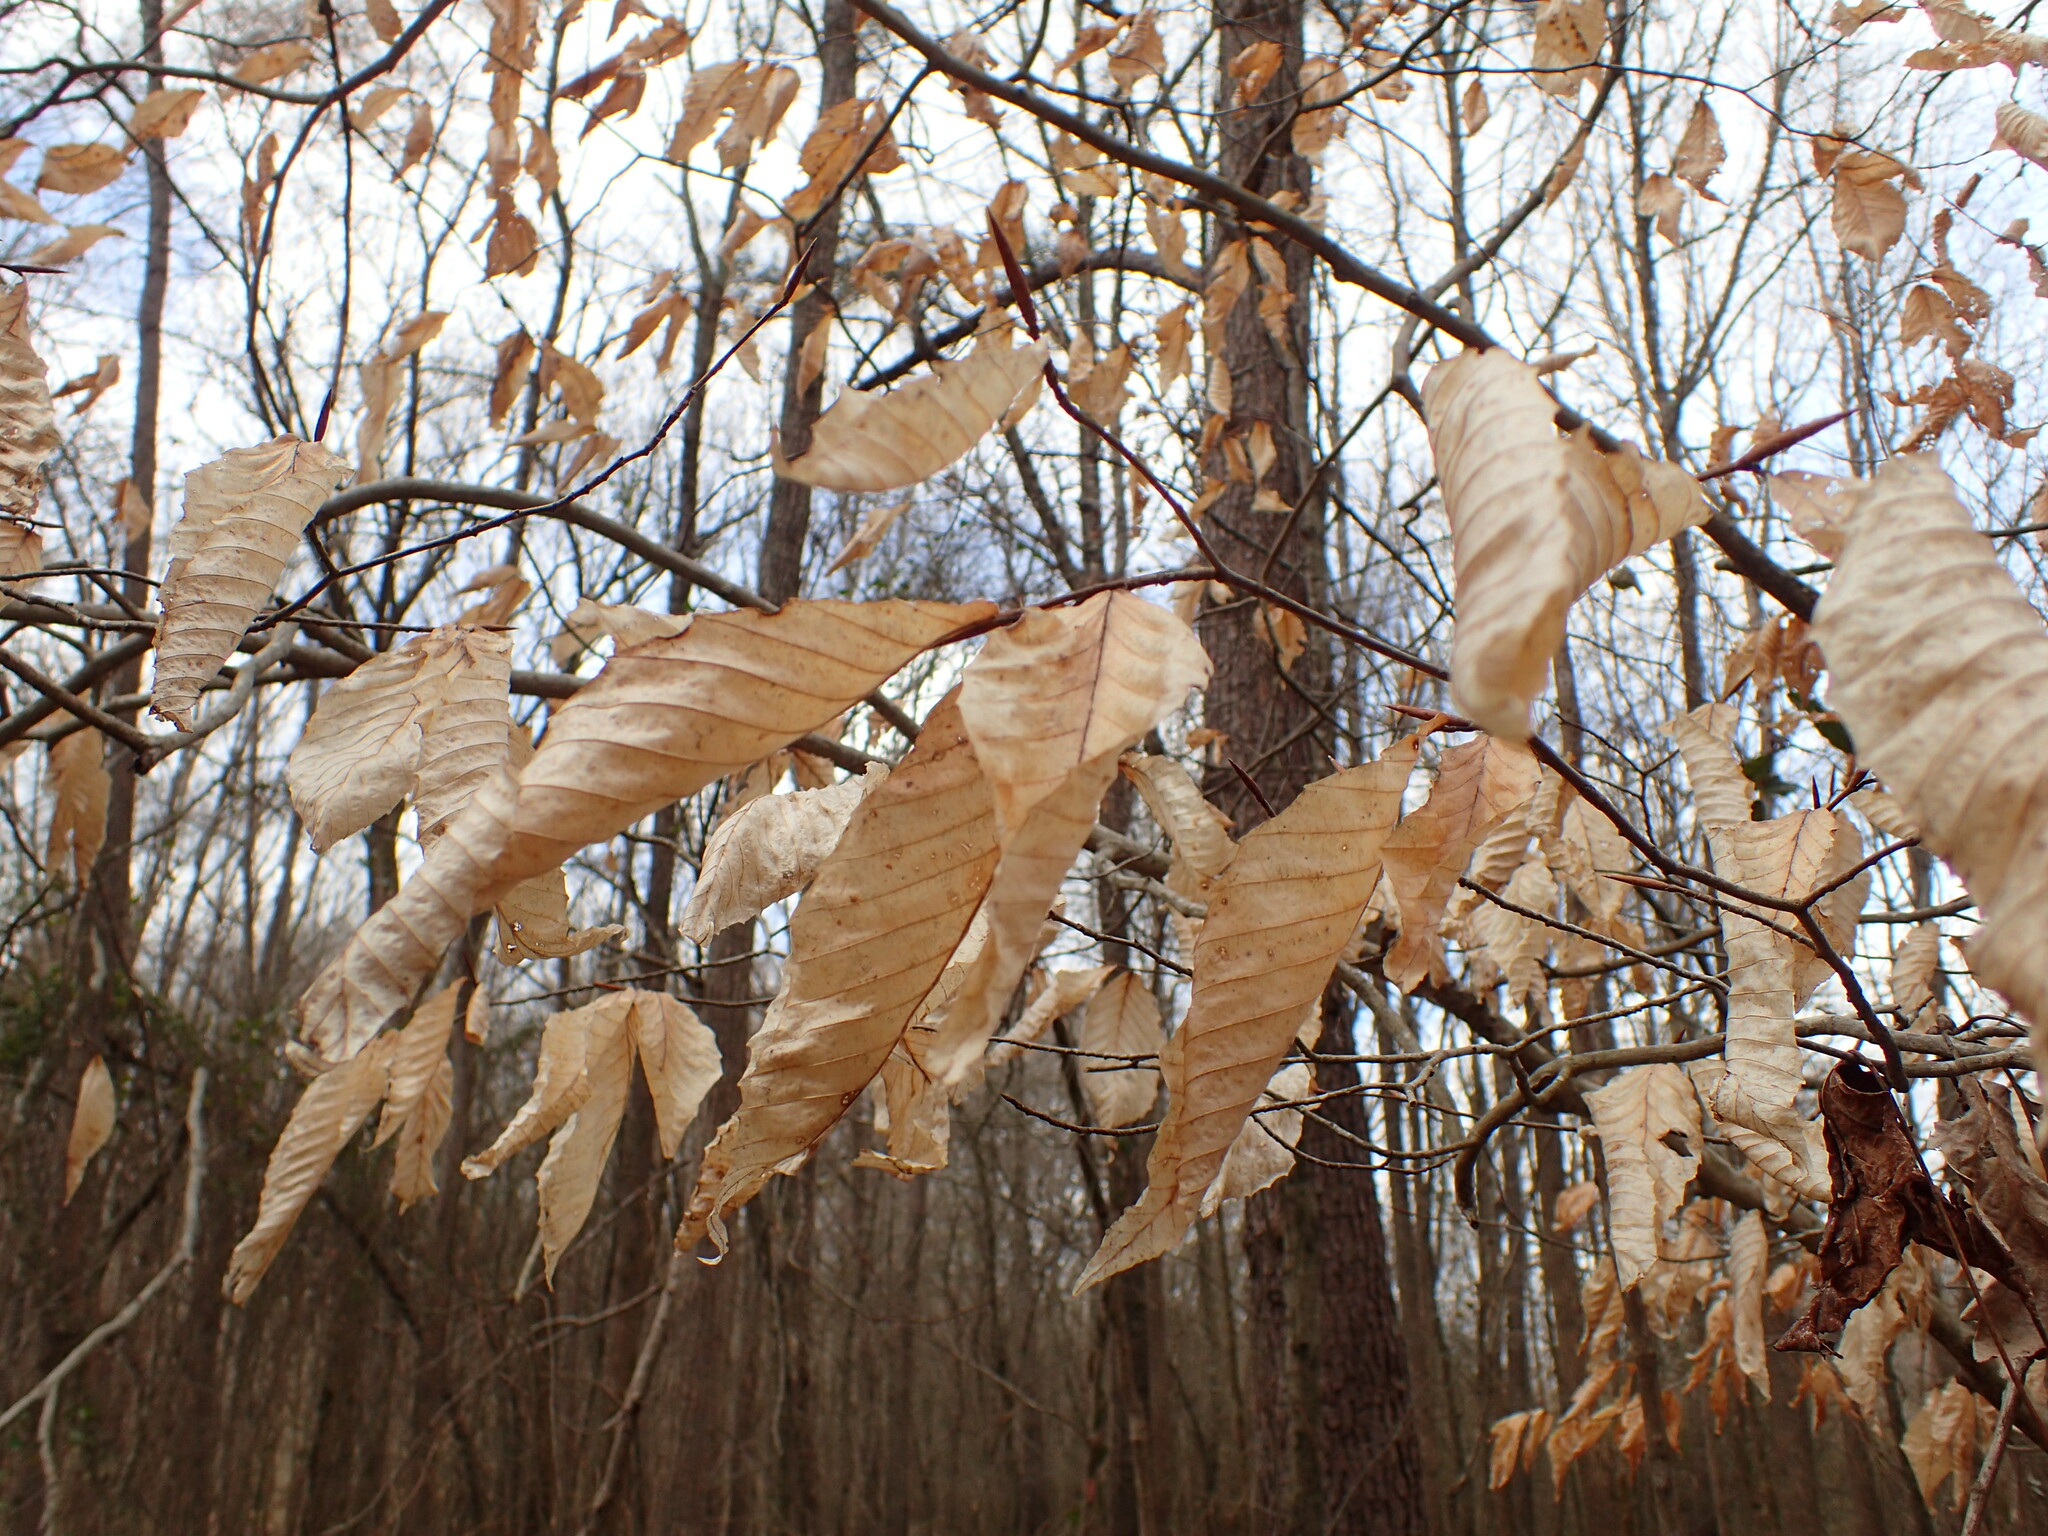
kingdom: Plantae
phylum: Tracheophyta
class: Magnoliopsida
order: Fagales
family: Fagaceae
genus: Fagus
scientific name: Fagus grandifolia
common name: American beech
